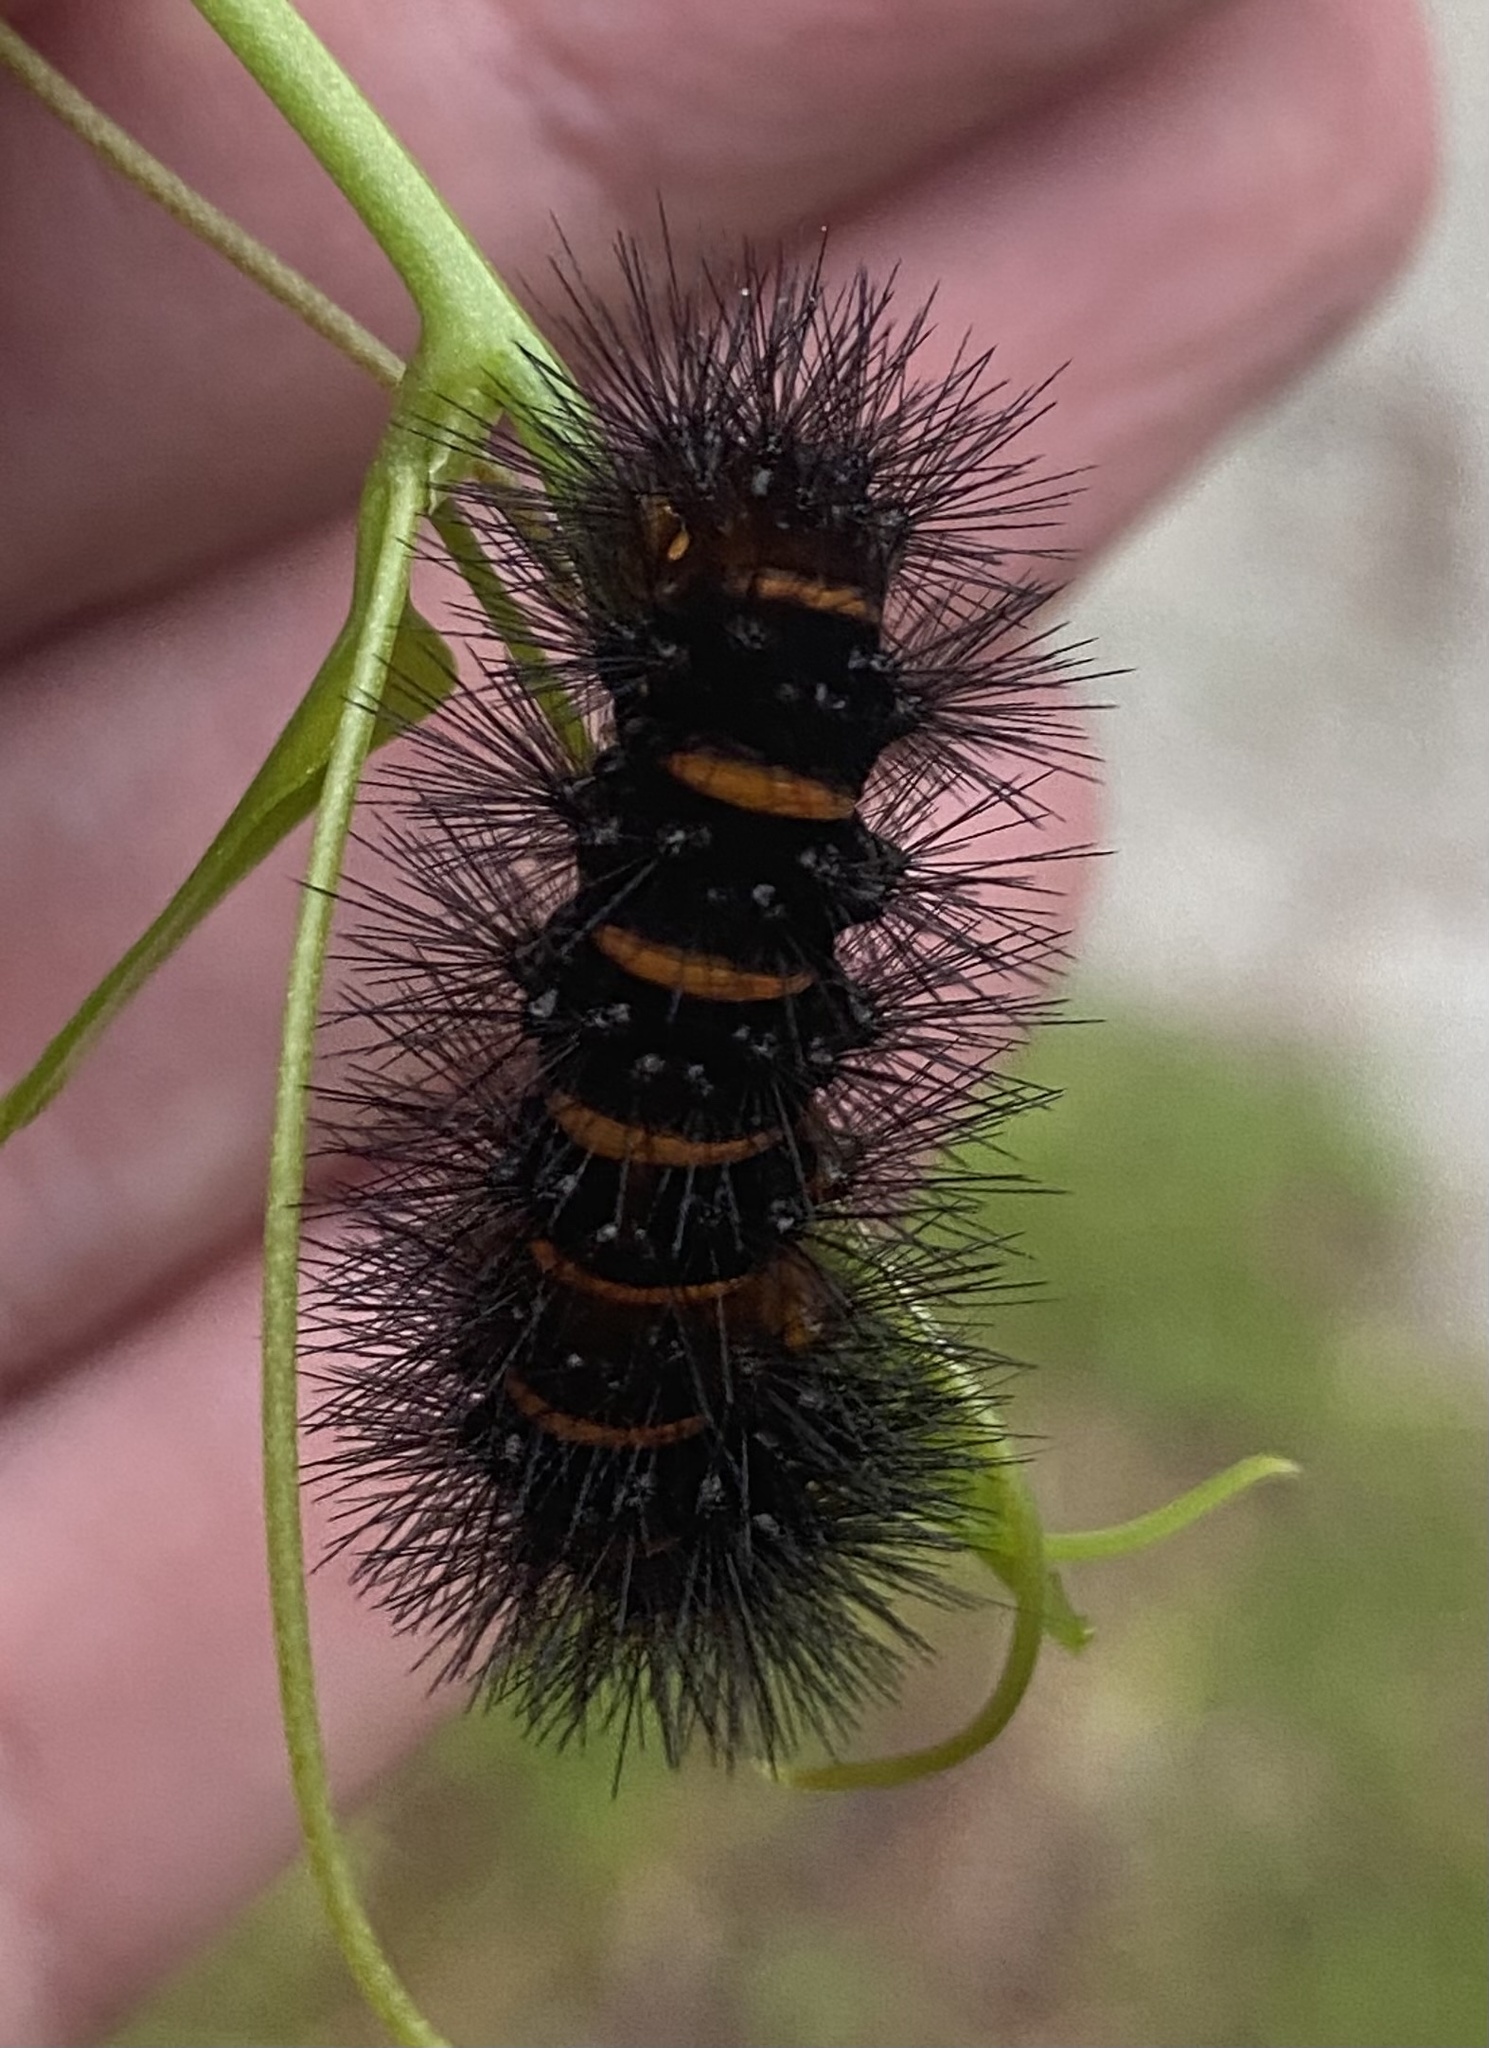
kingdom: Animalia
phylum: Arthropoda
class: Insecta
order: Lepidoptera
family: Erebidae
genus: Hypercompe
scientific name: Hypercompe scribonia
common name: Giant leopard moth
